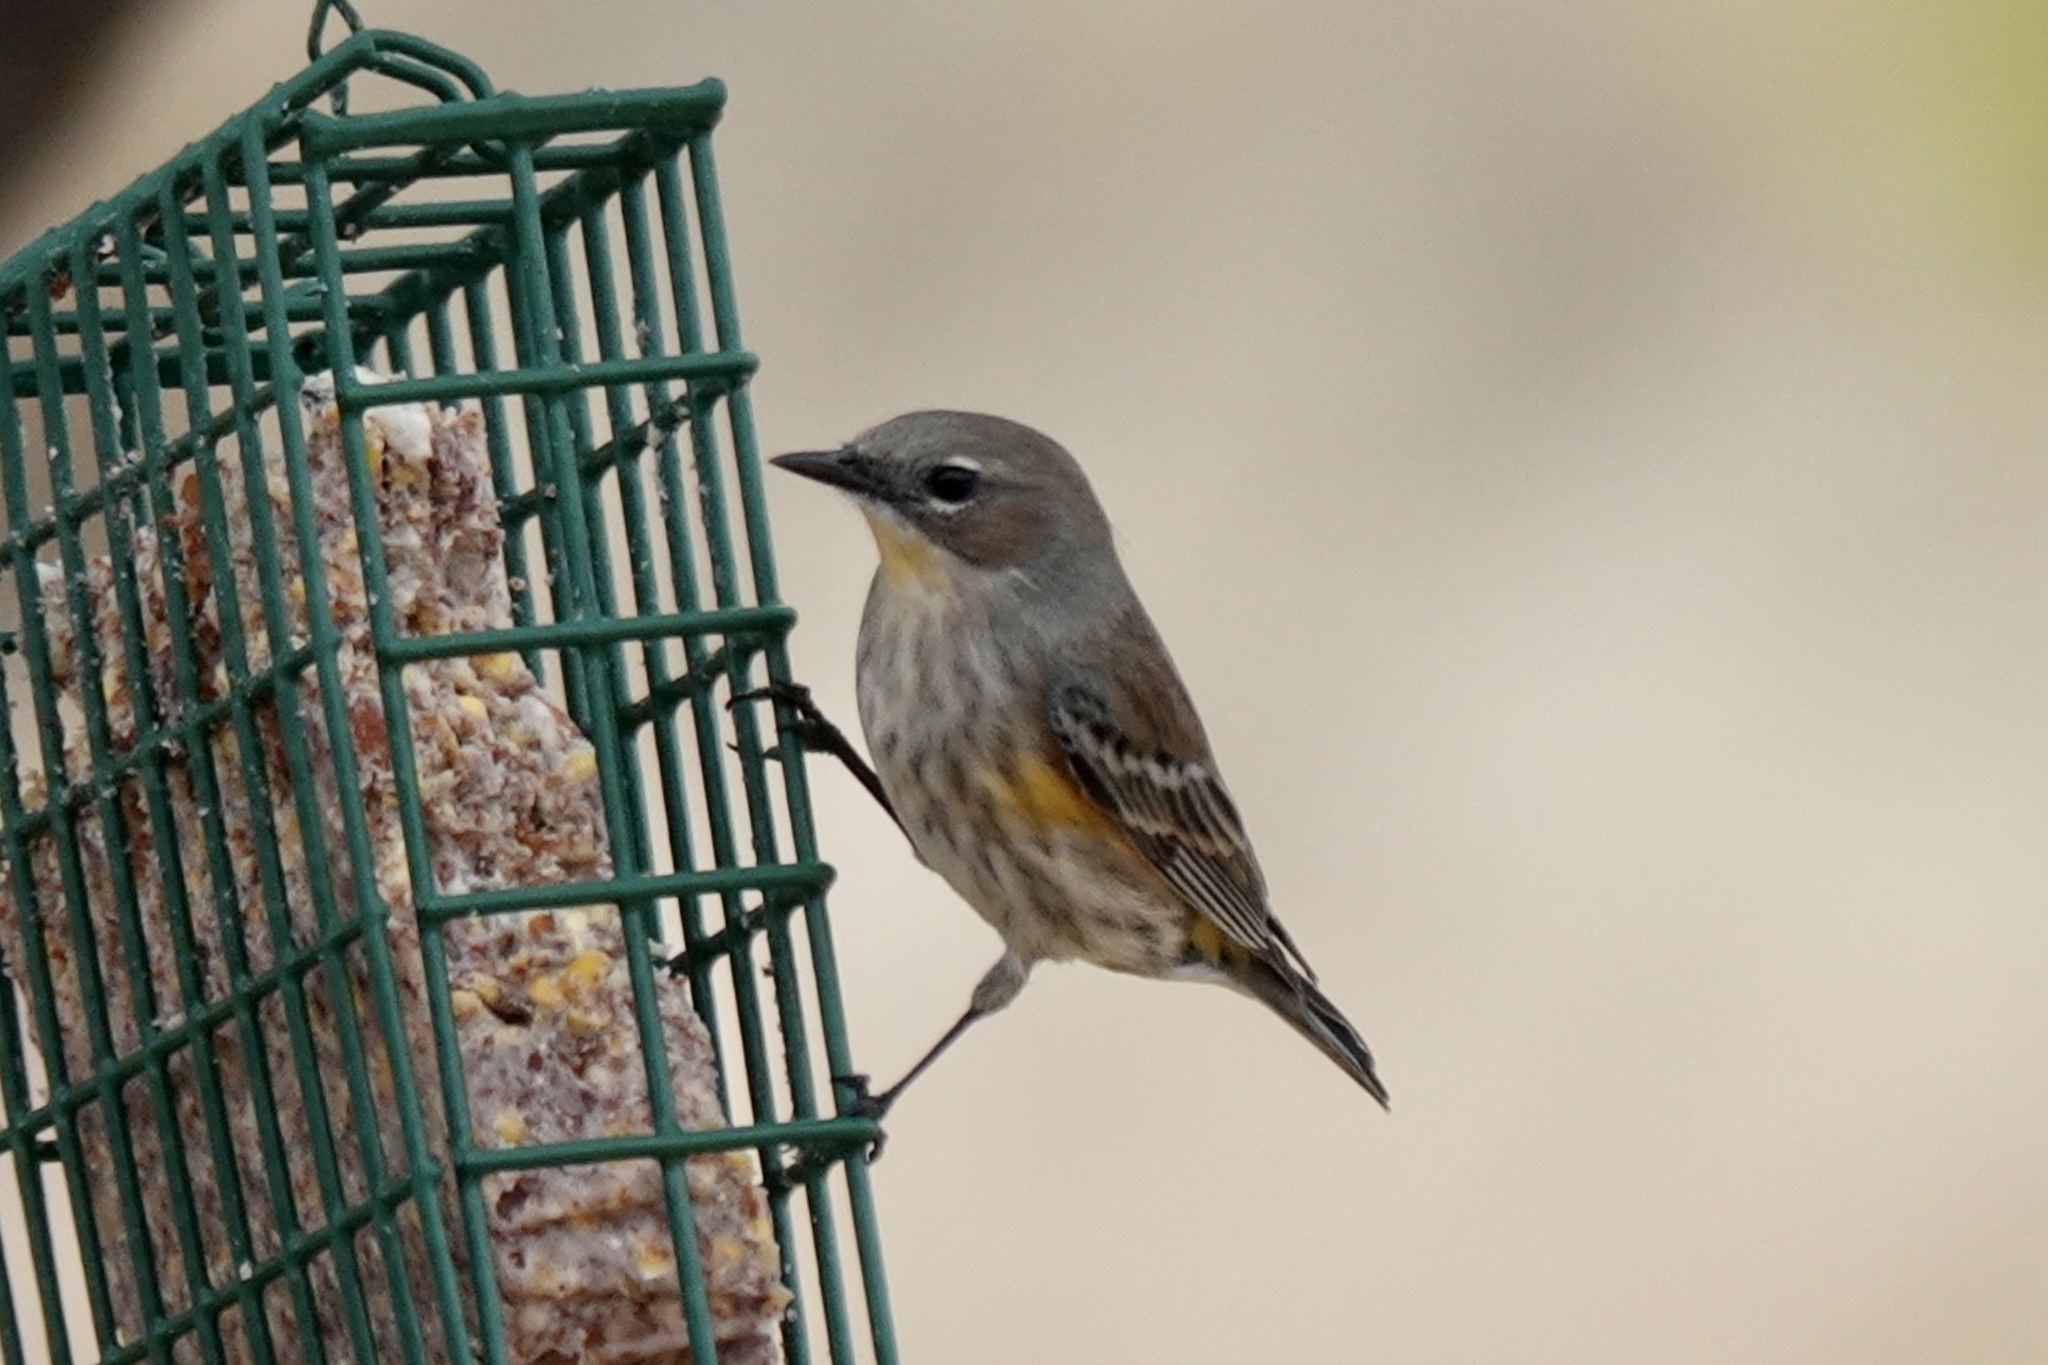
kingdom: Animalia
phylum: Chordata
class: Aves
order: Passeriformes
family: Parulidae
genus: Setophaga
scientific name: Setophaga coronata
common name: Myrtle warbler
